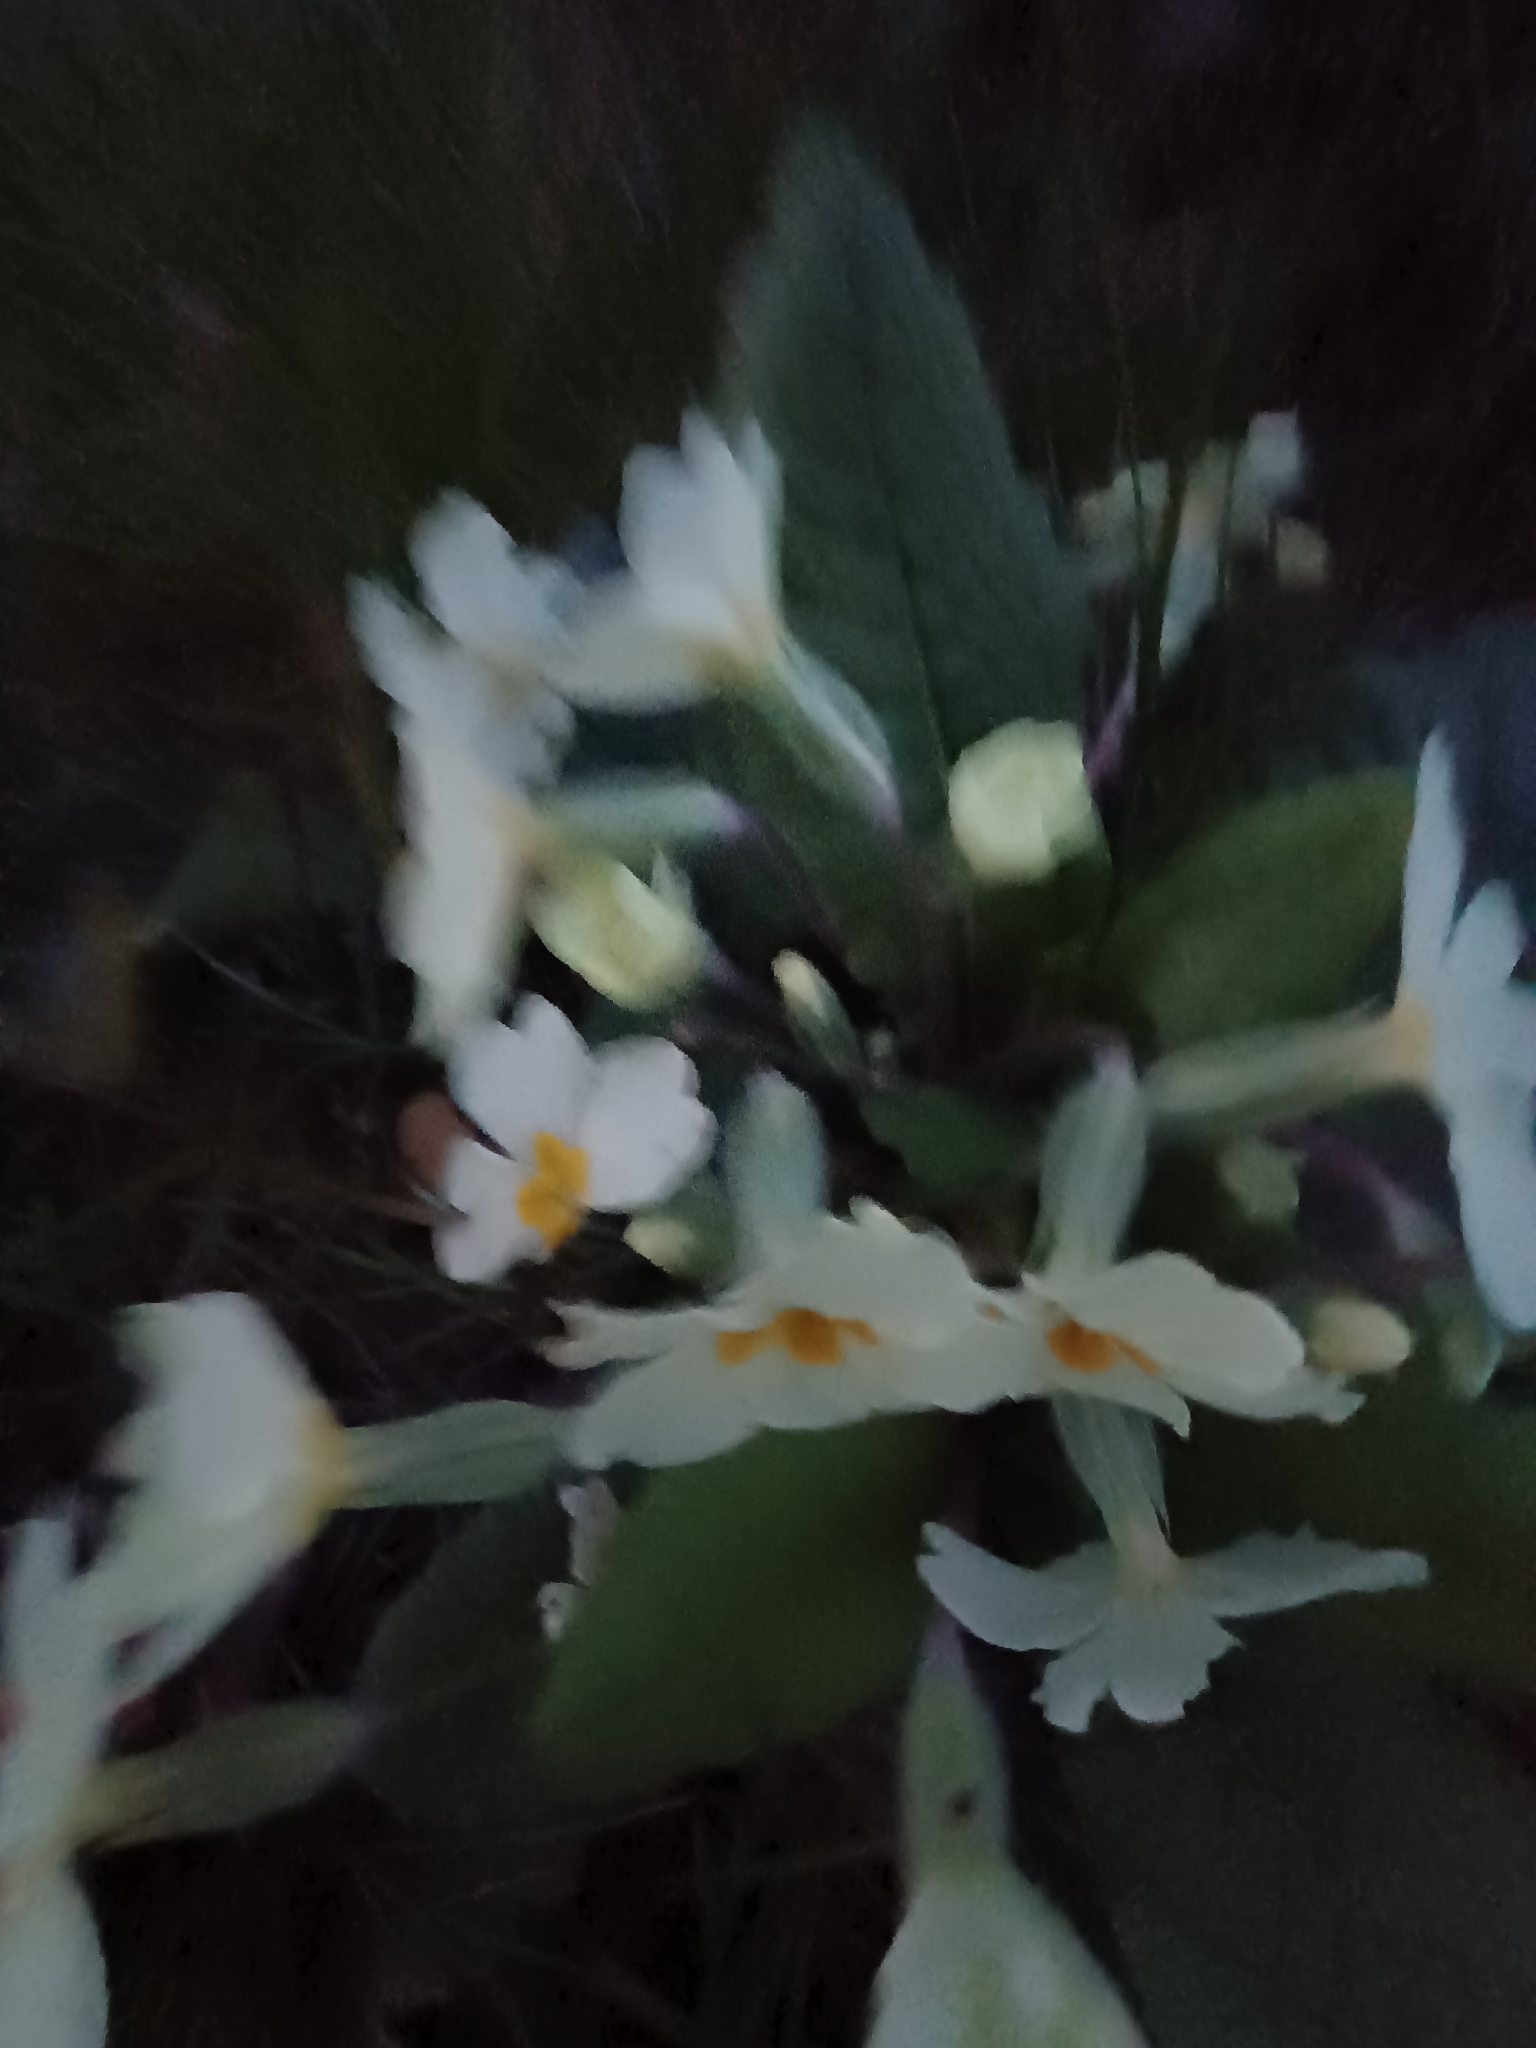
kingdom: Plantae
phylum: Tracheophyta
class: Magnoliopsida
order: Ericales
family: Primulaceae
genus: Primula
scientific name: Primula vulgaris
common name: Primrose
